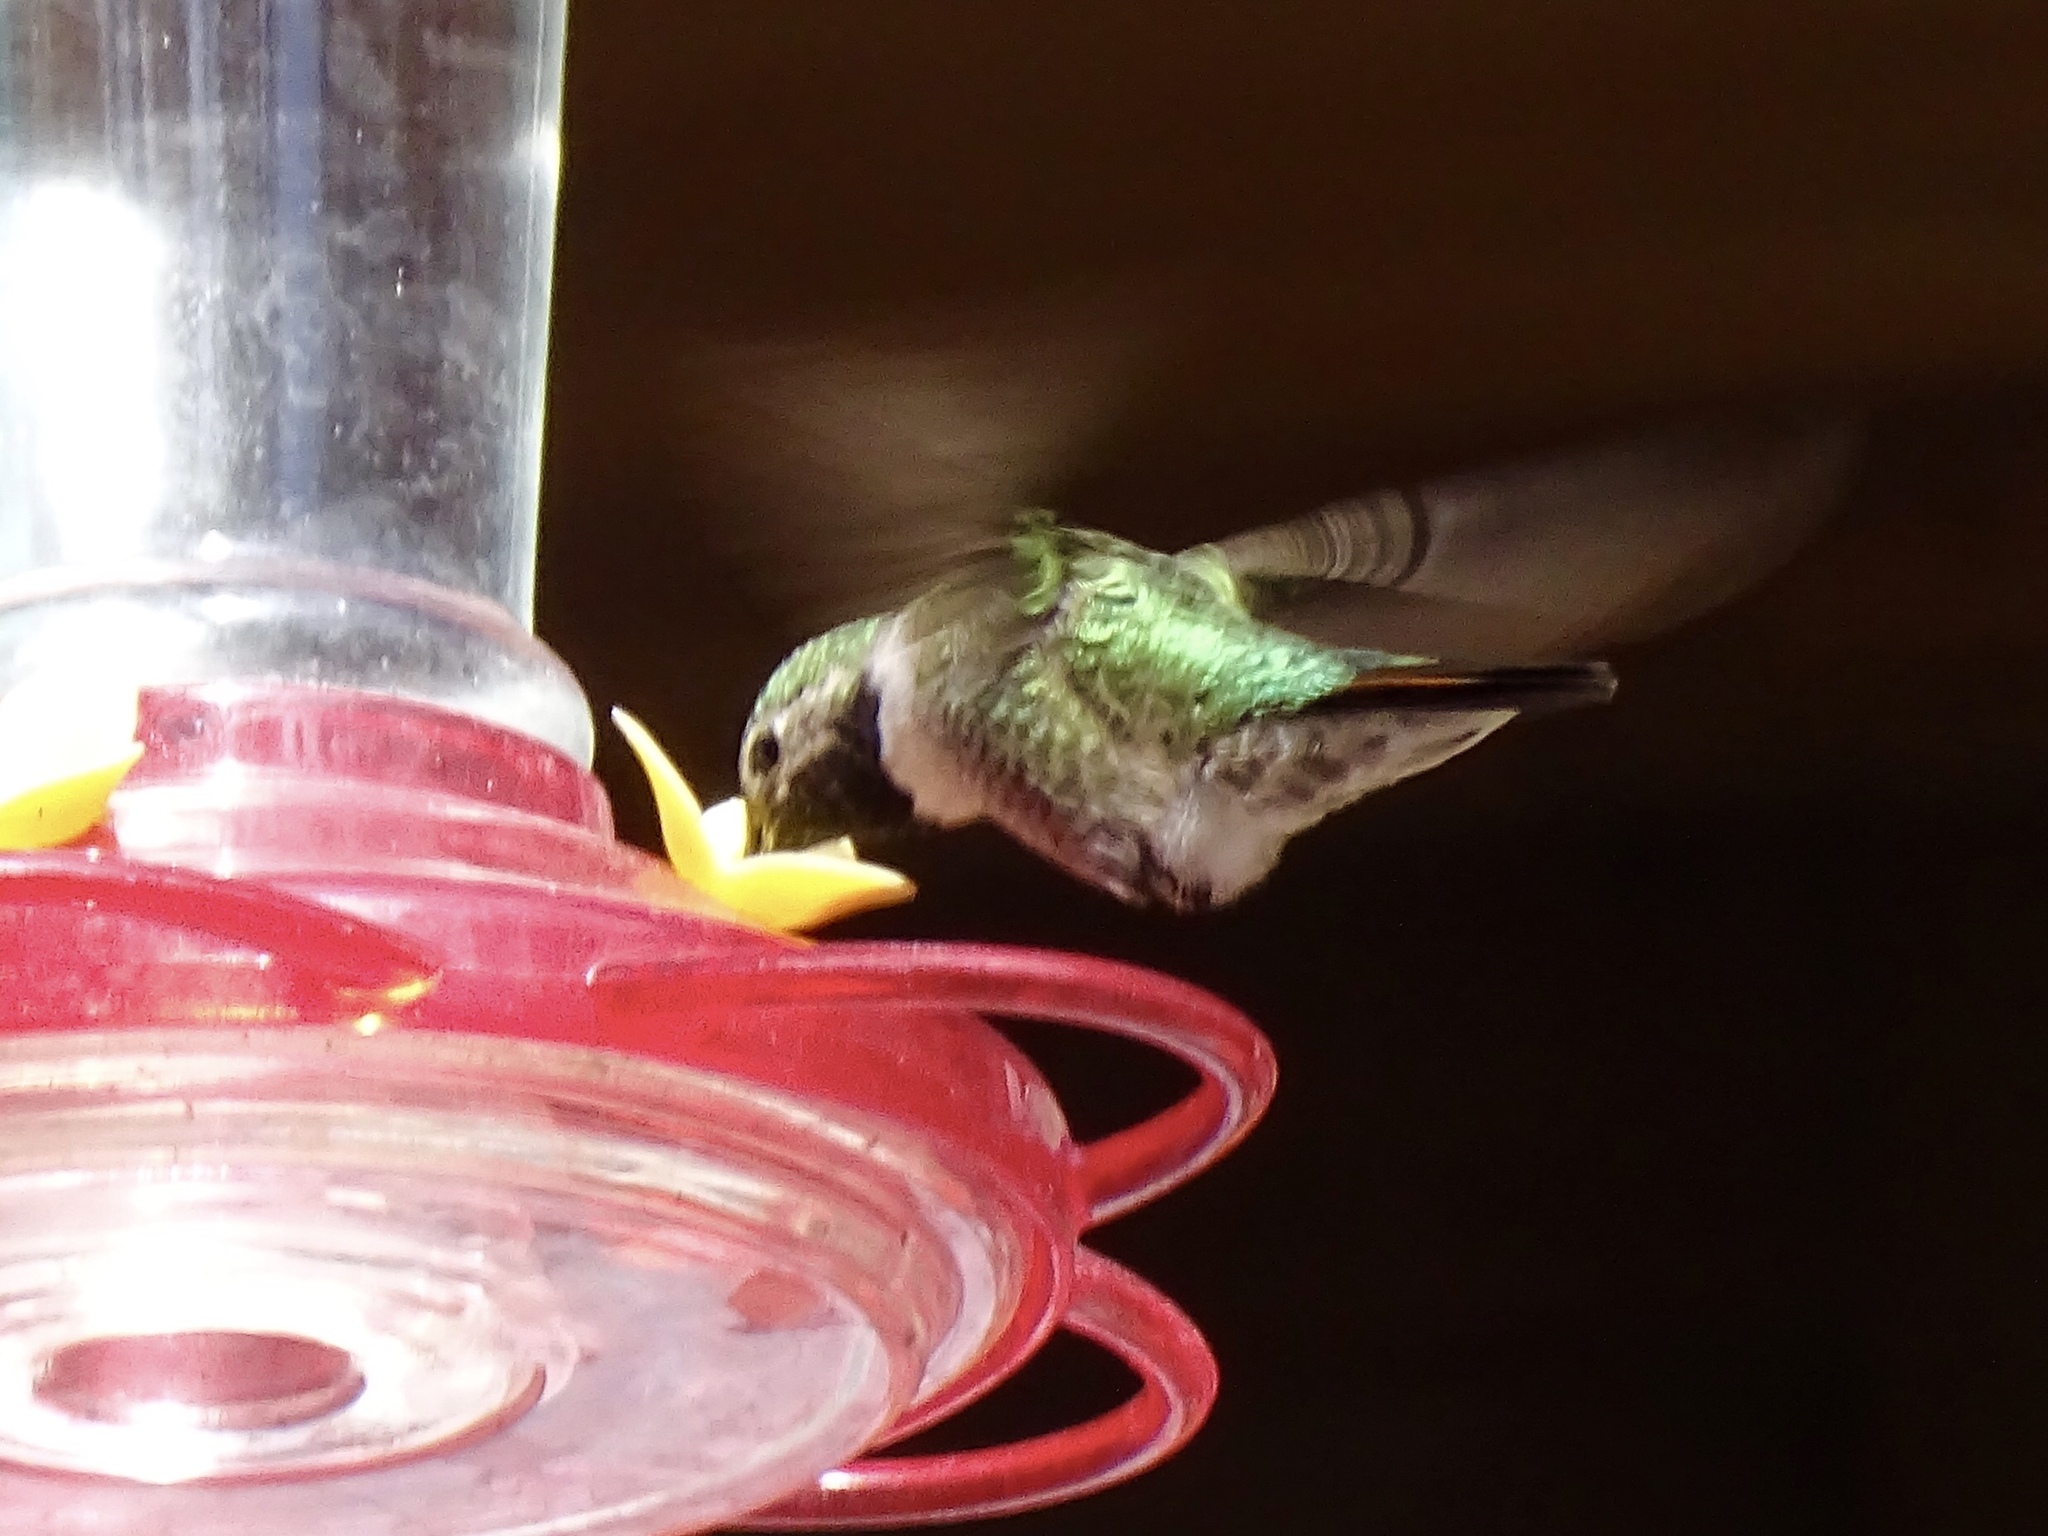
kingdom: Animalia
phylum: Chordata
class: Aves
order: Apodiformes
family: Trochilidae
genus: Selasphorus
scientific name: Selasphorus platycercus
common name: Broad-tailed hummingbird
